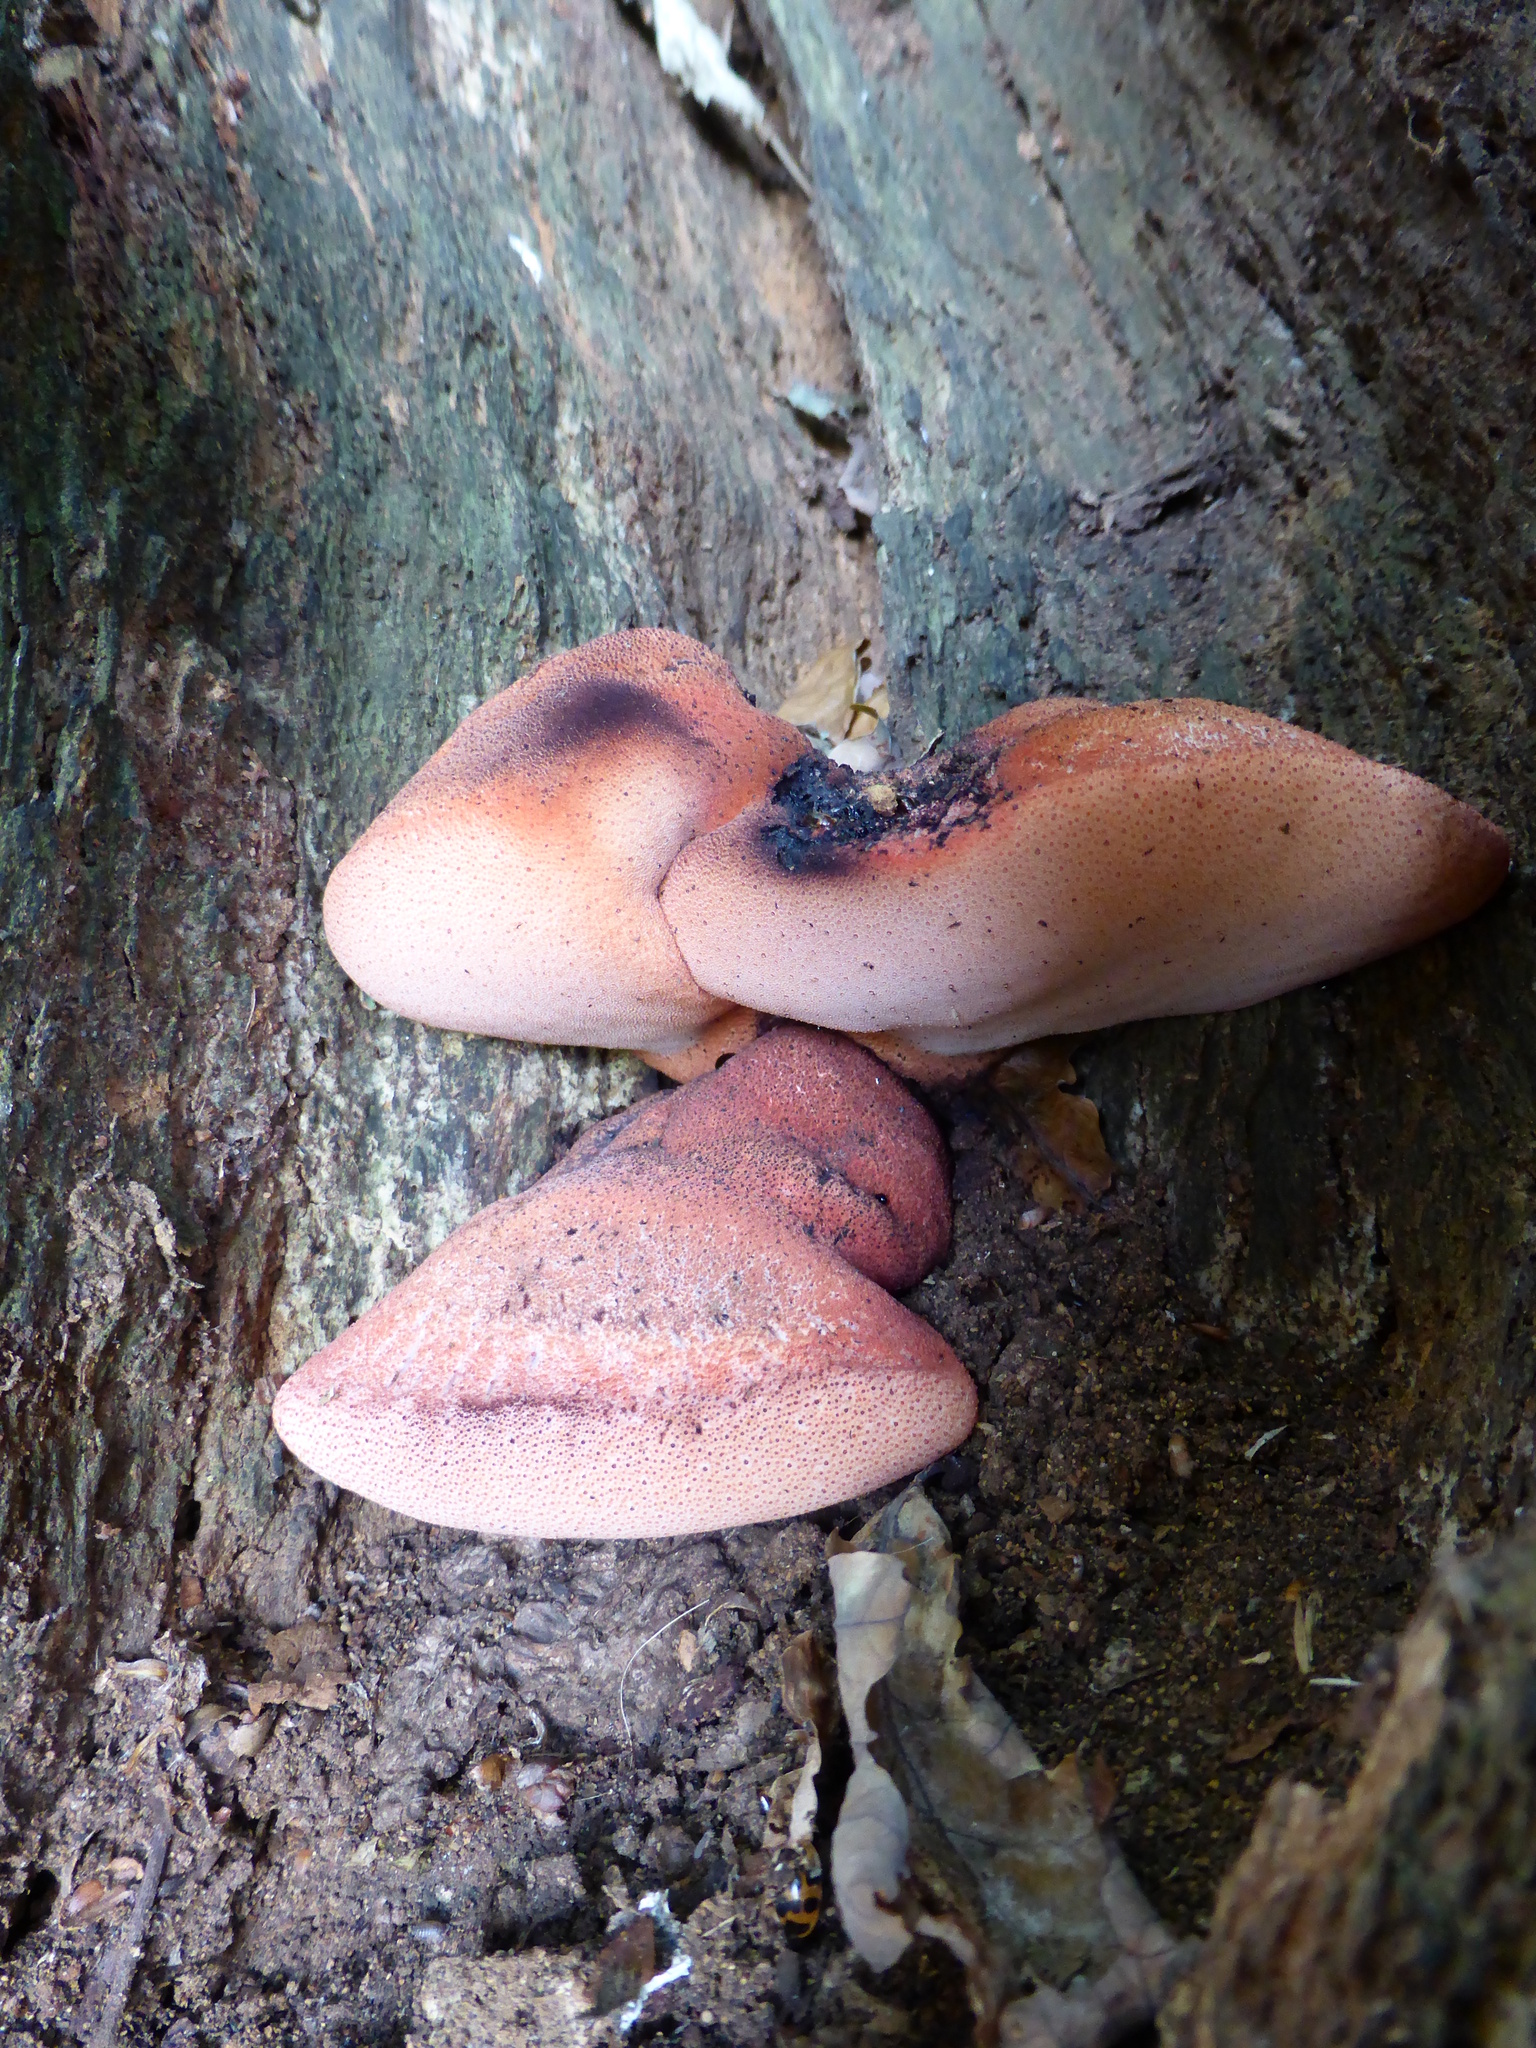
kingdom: Fungi
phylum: Basidiomycota
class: Agaricomycetes
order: Agaricales
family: Fistulinaceae
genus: Fistulina
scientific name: Fistulina hepatica
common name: Beef-steak fungus
